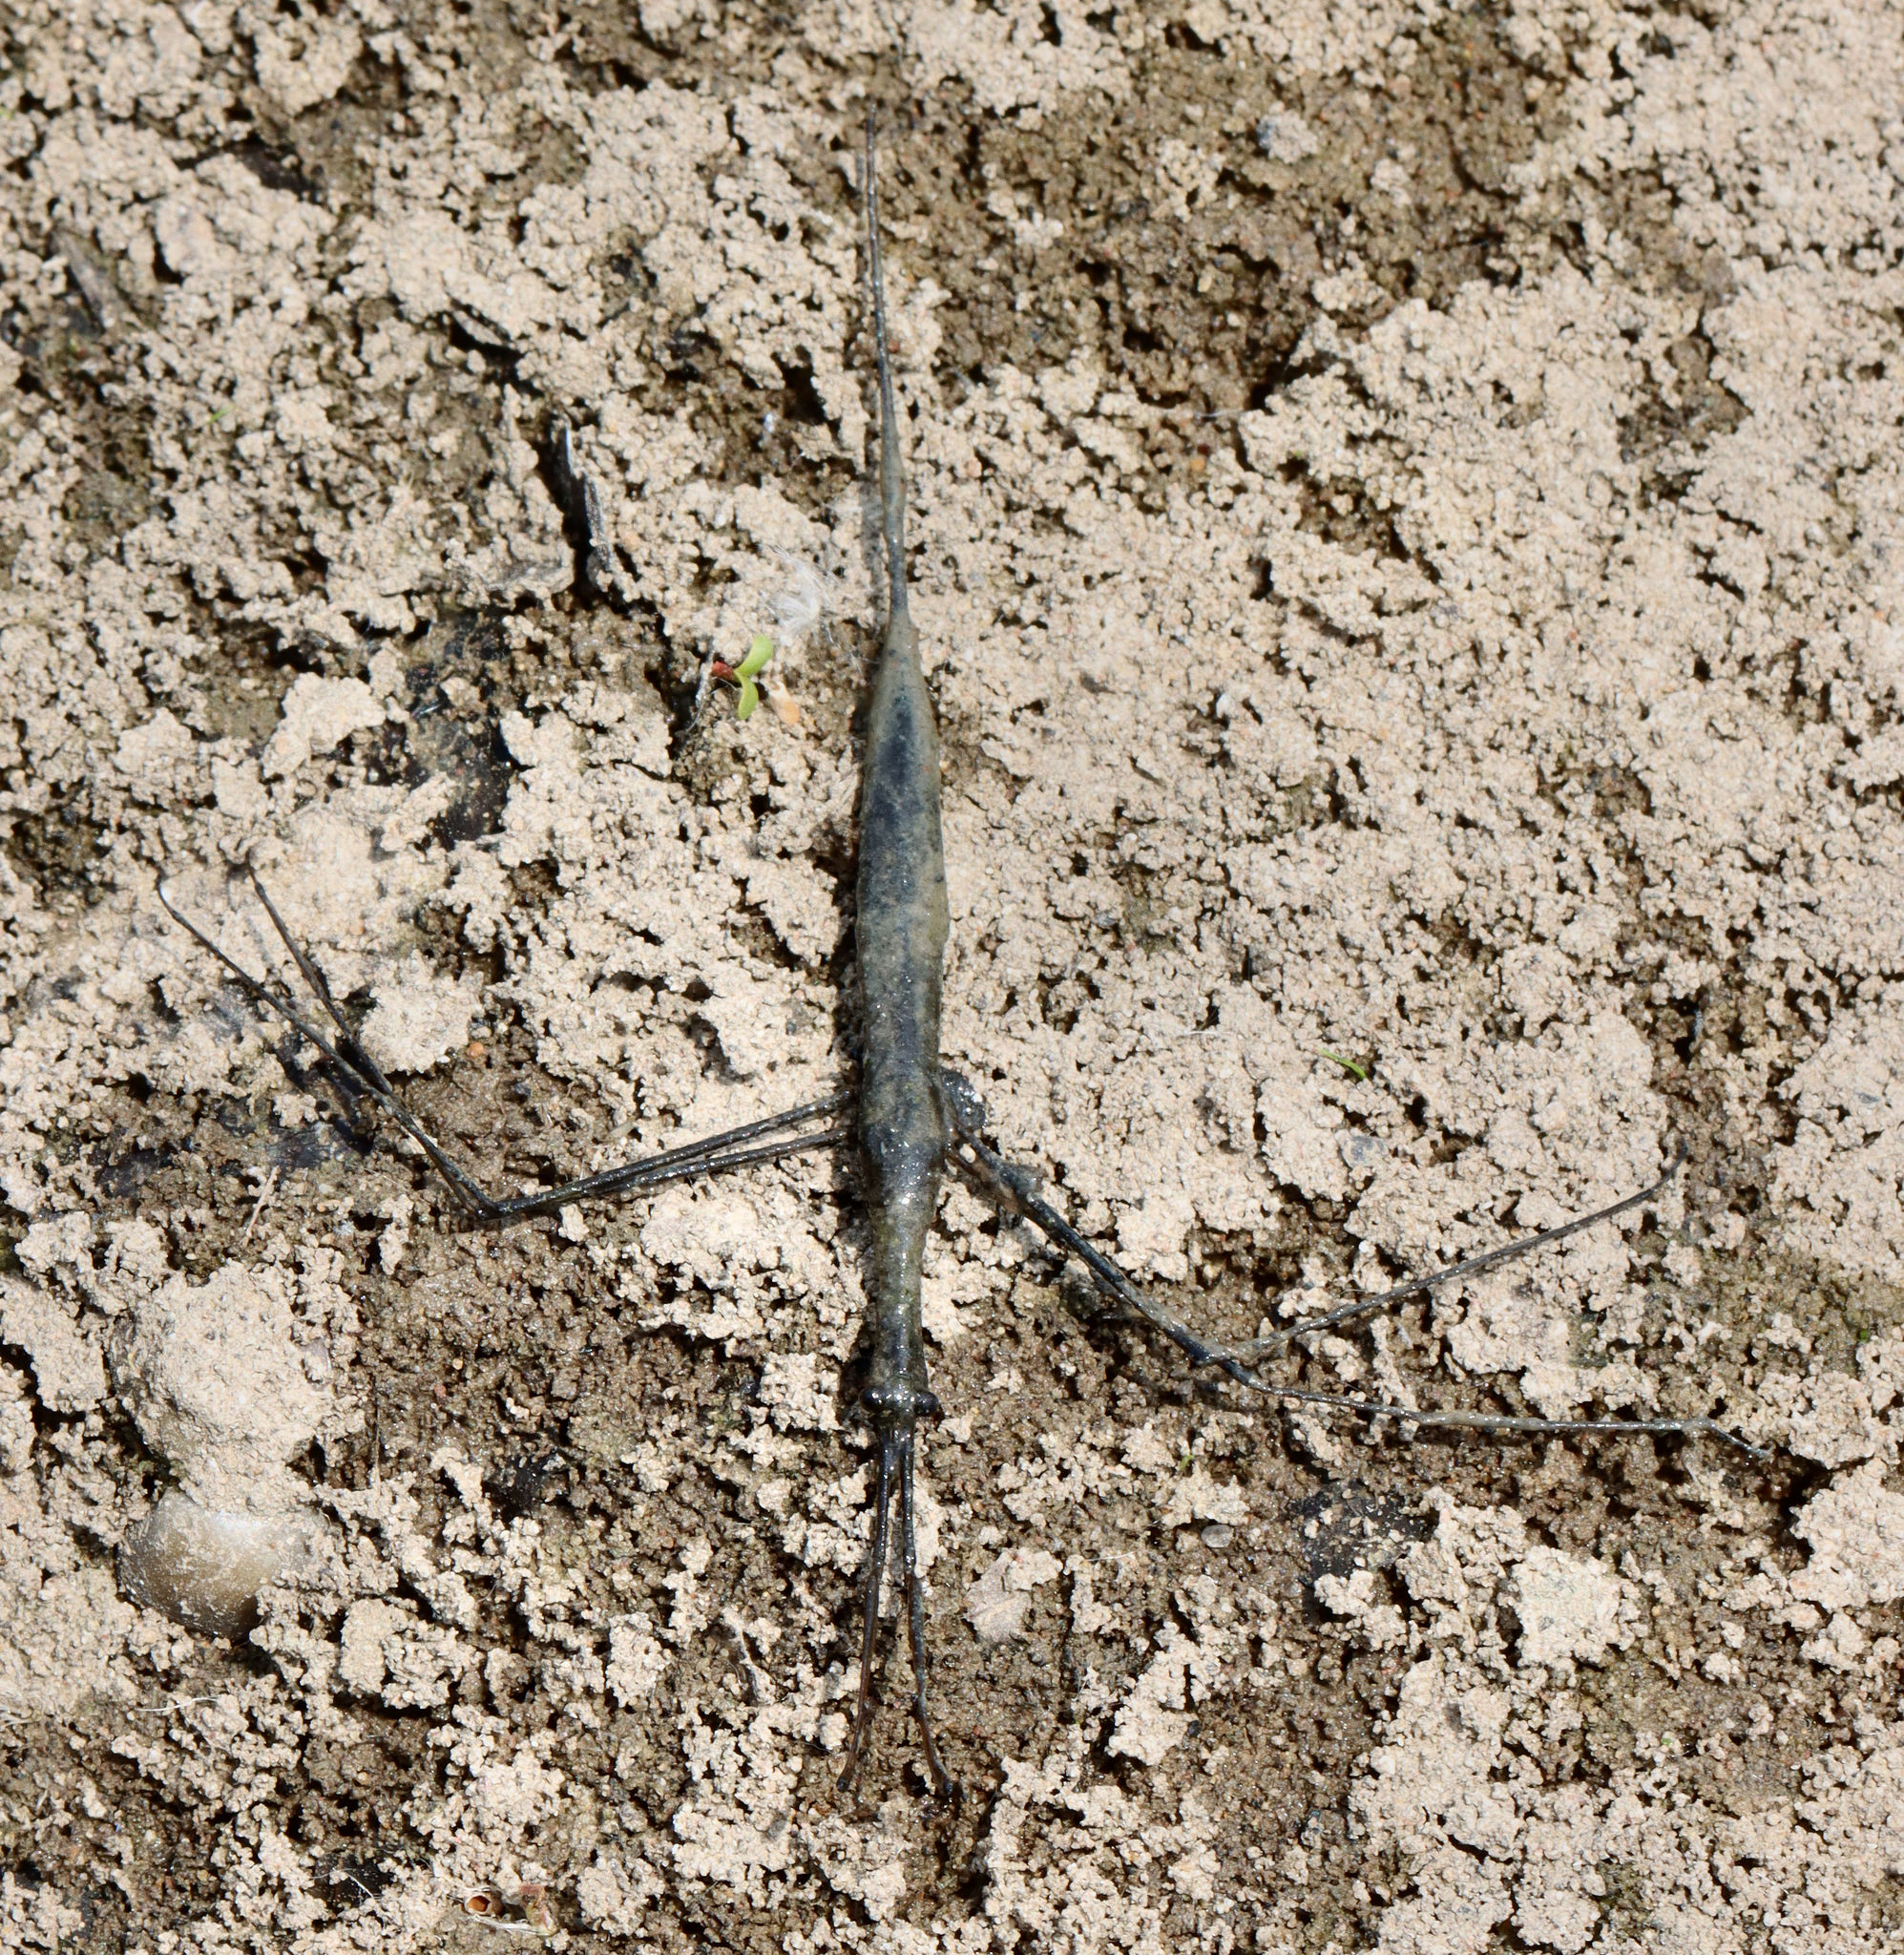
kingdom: Animalia
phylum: Arthropoda
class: Insecta
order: Hemiptera
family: Nepidae
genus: Ranatra
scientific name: Ranatra
